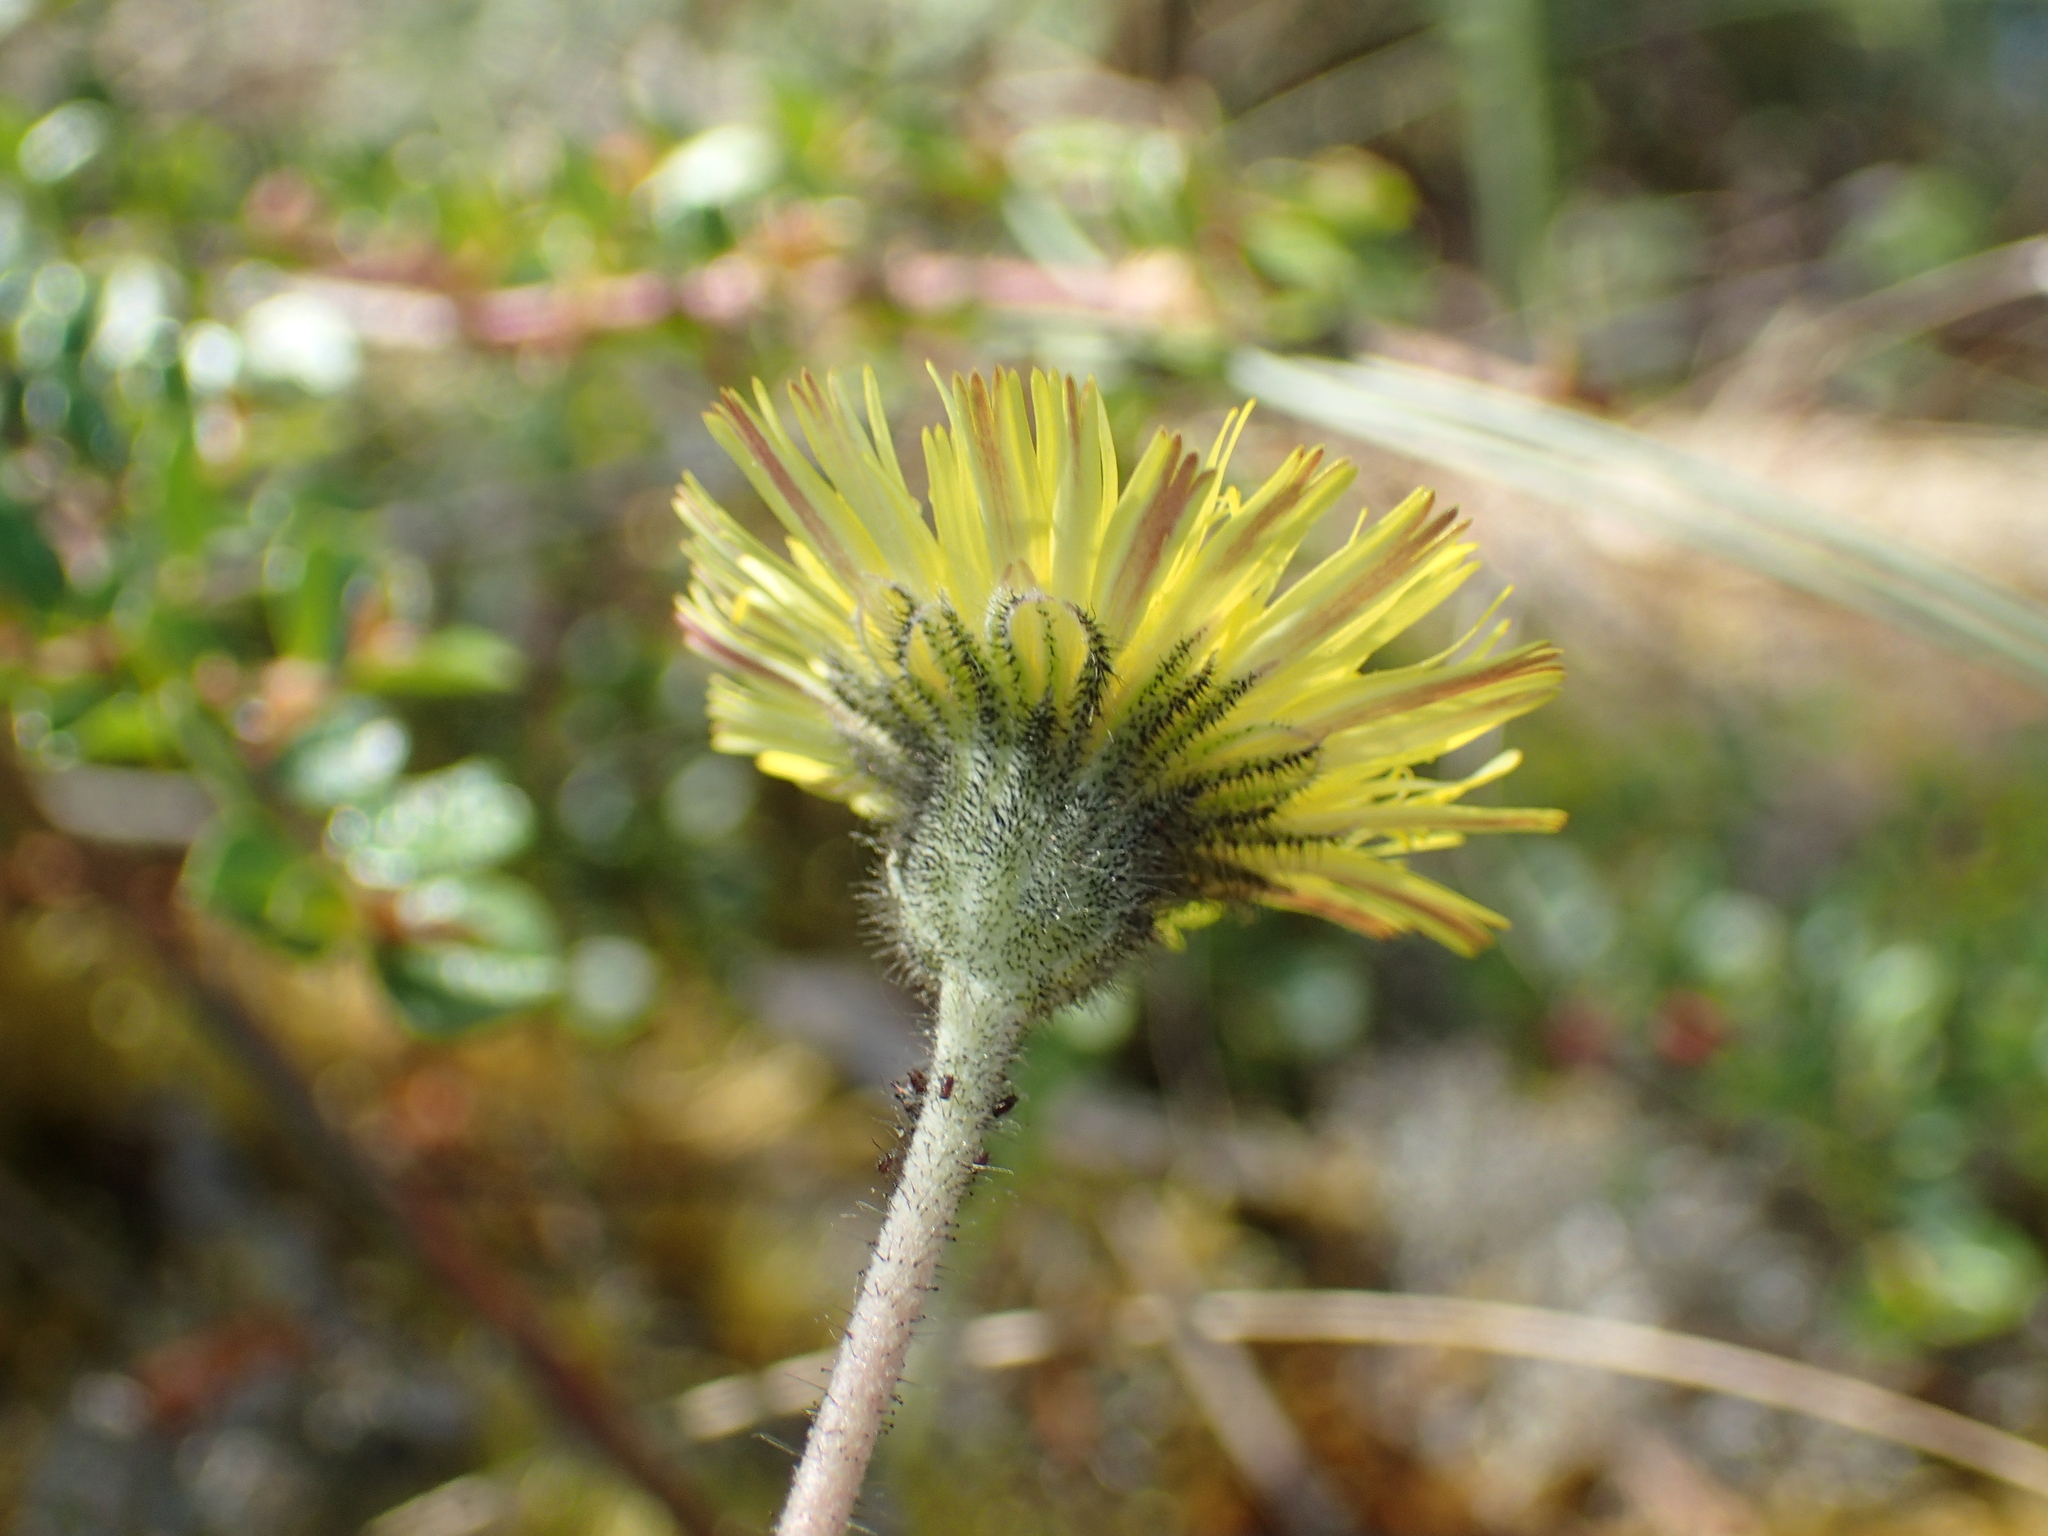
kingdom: Plantae
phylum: Tracheophyta
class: Magnoliopsida
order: Asterales
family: Asteraceae
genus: Pilosella
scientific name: Pilosella officinarum
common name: Mouse-ear hawkweed
